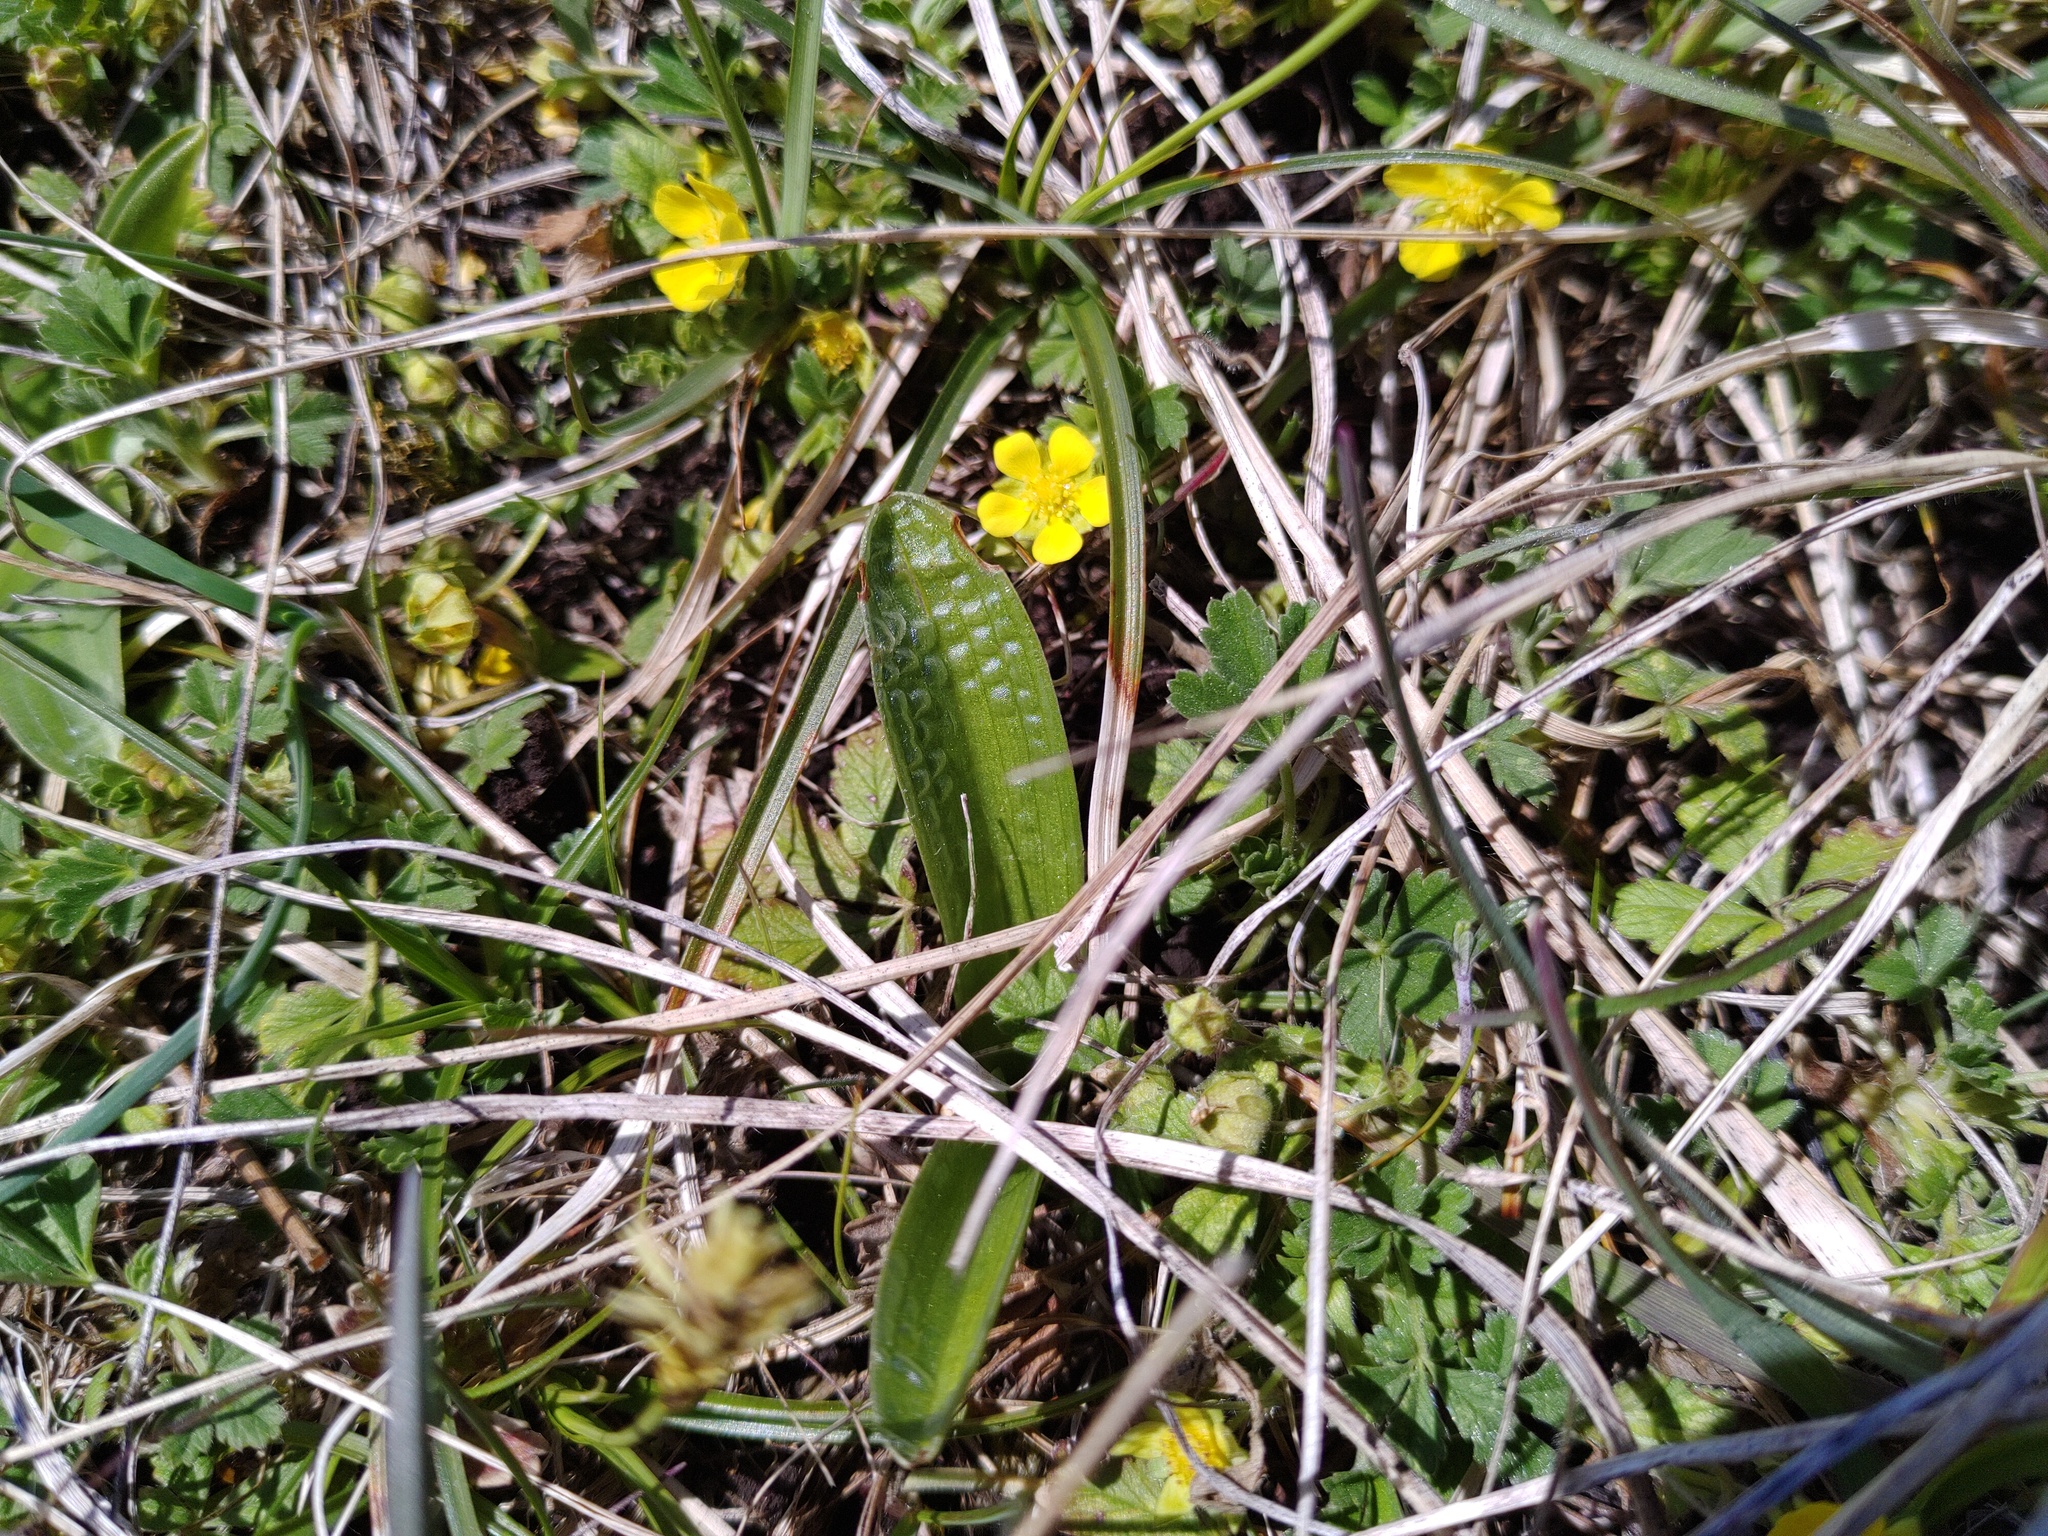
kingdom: Plantae
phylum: Tracheophyta
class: Liliopsida
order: Asparagales
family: Orchidaceae
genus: Orchis
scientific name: Orchis pallens
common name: Pale-flowered orchid
